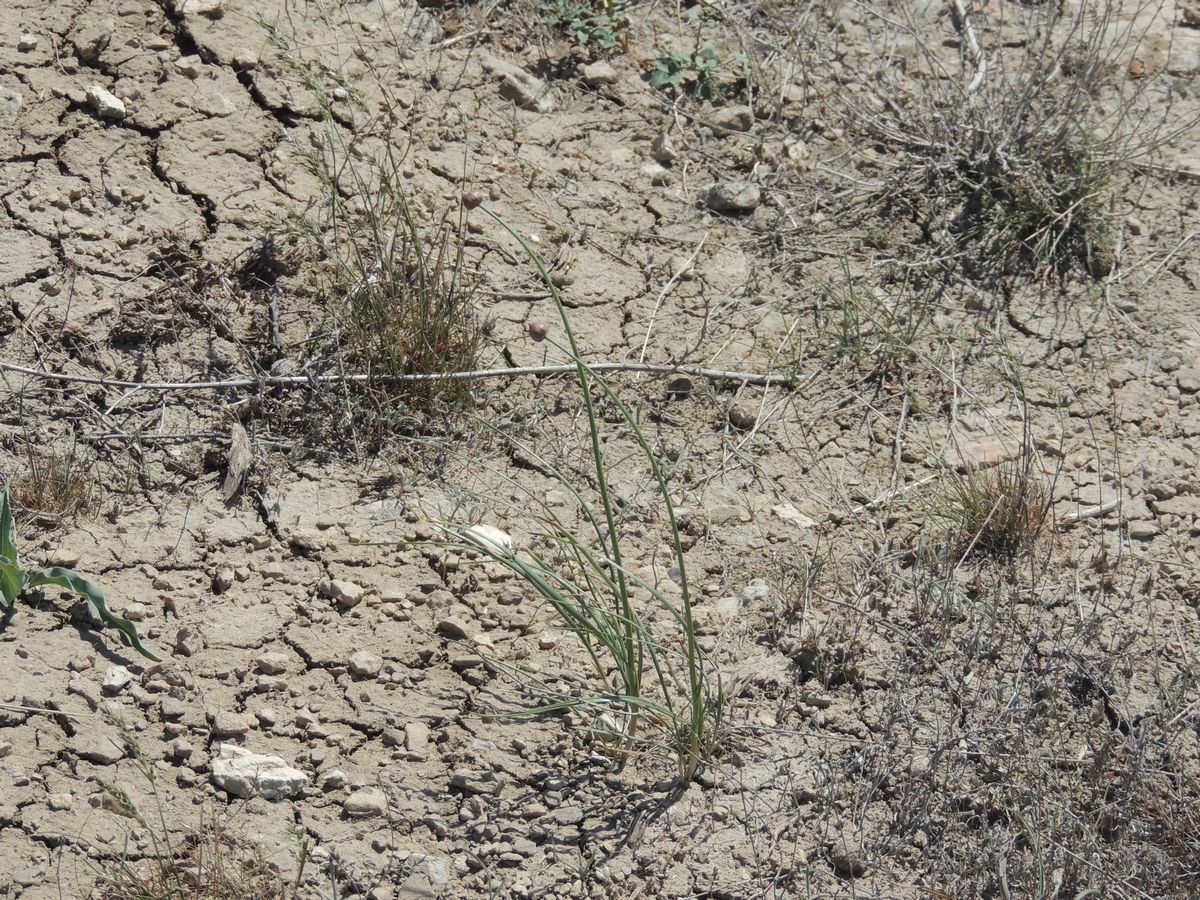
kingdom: Plantae
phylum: Tracheophyta
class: Liliopsida
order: Asparagales
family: Amaryllidaceae
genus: Allium
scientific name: Allium inderiense
